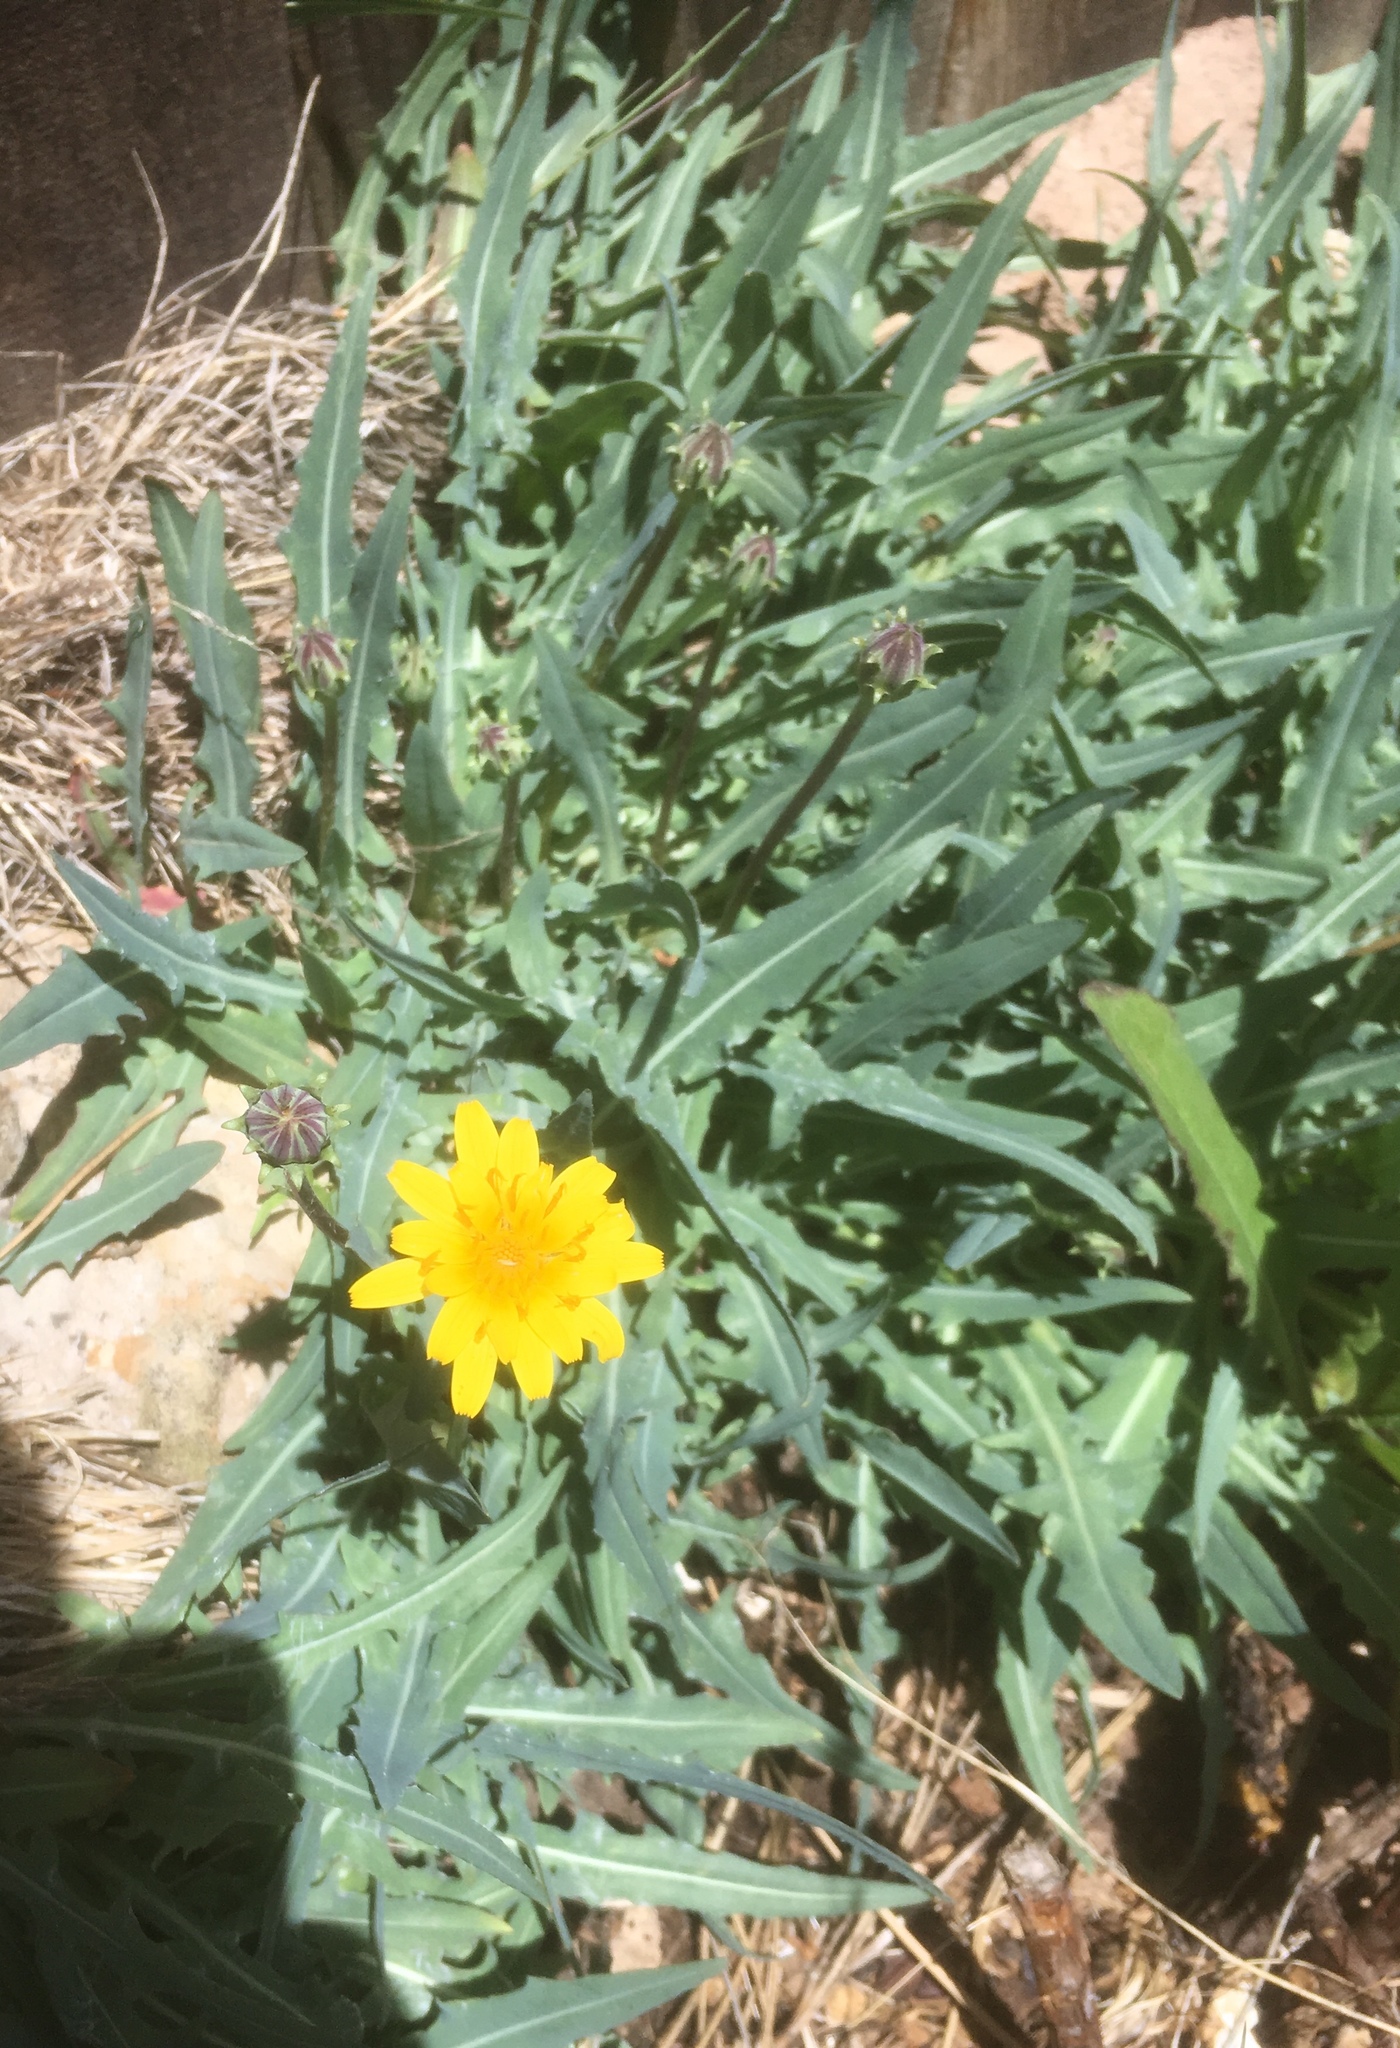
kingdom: Plantae
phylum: Tracheophyta
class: Magnoliopsida
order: Asterales
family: Asteraceae
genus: Agoseris
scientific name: Agoseris glauca
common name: Prairie agoseris
